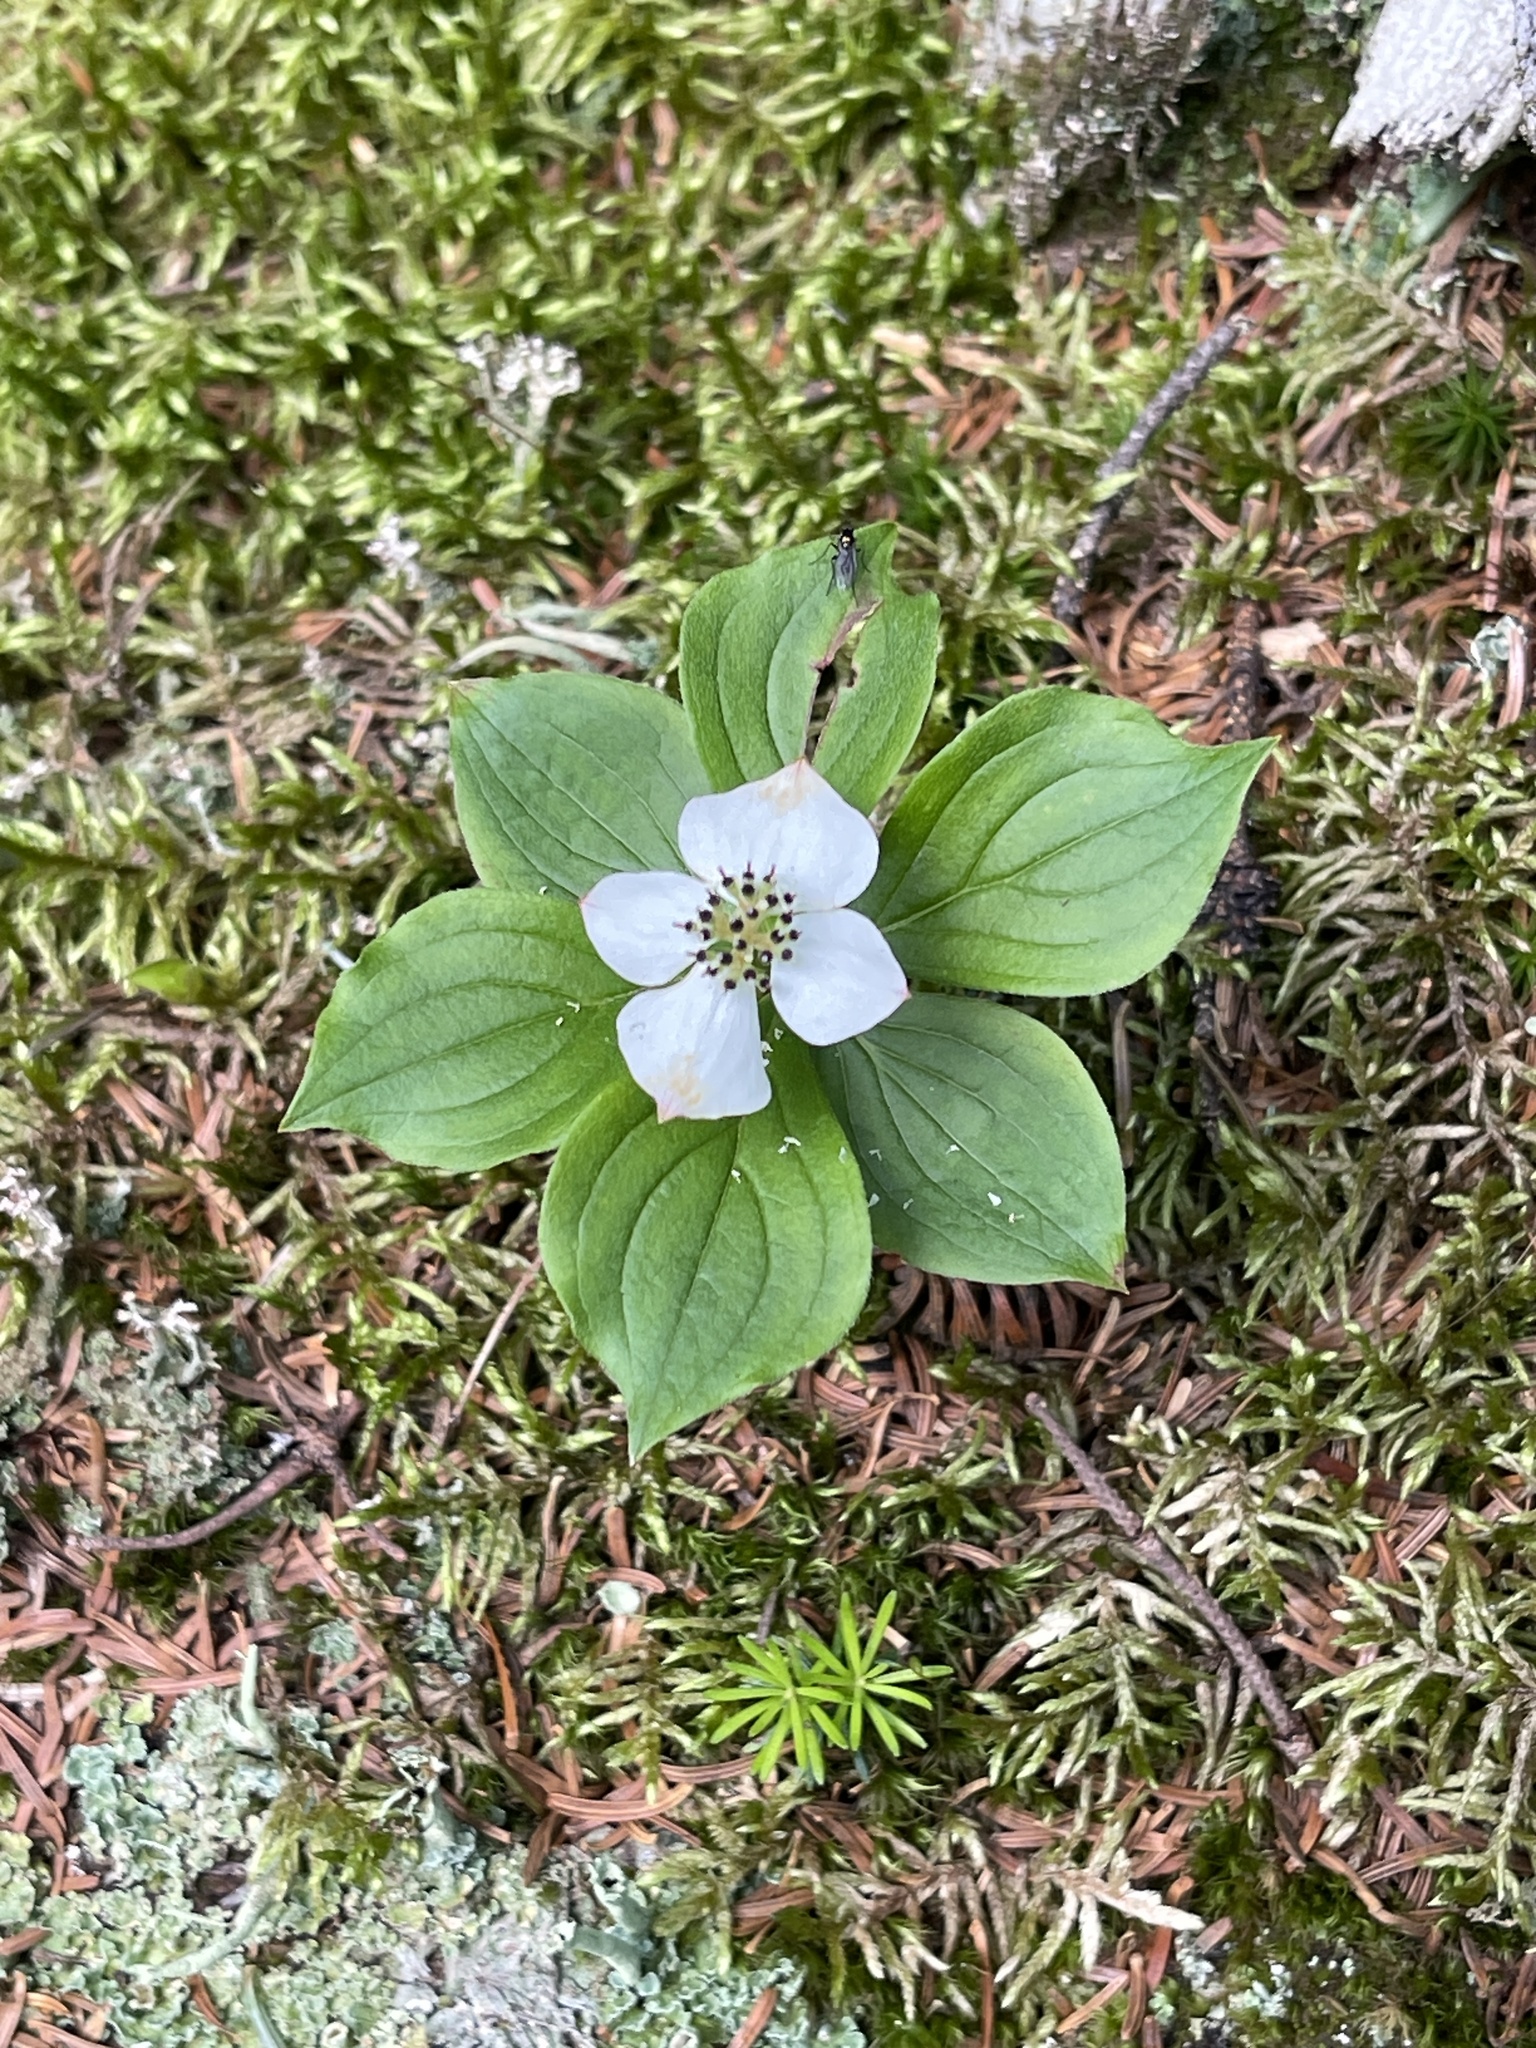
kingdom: Plantae
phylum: Tracheophyta
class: Magnoliopsida
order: Cornales
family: Cornaceae
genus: Cornus
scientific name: Cornus canadensis
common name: Creeping dogwood
